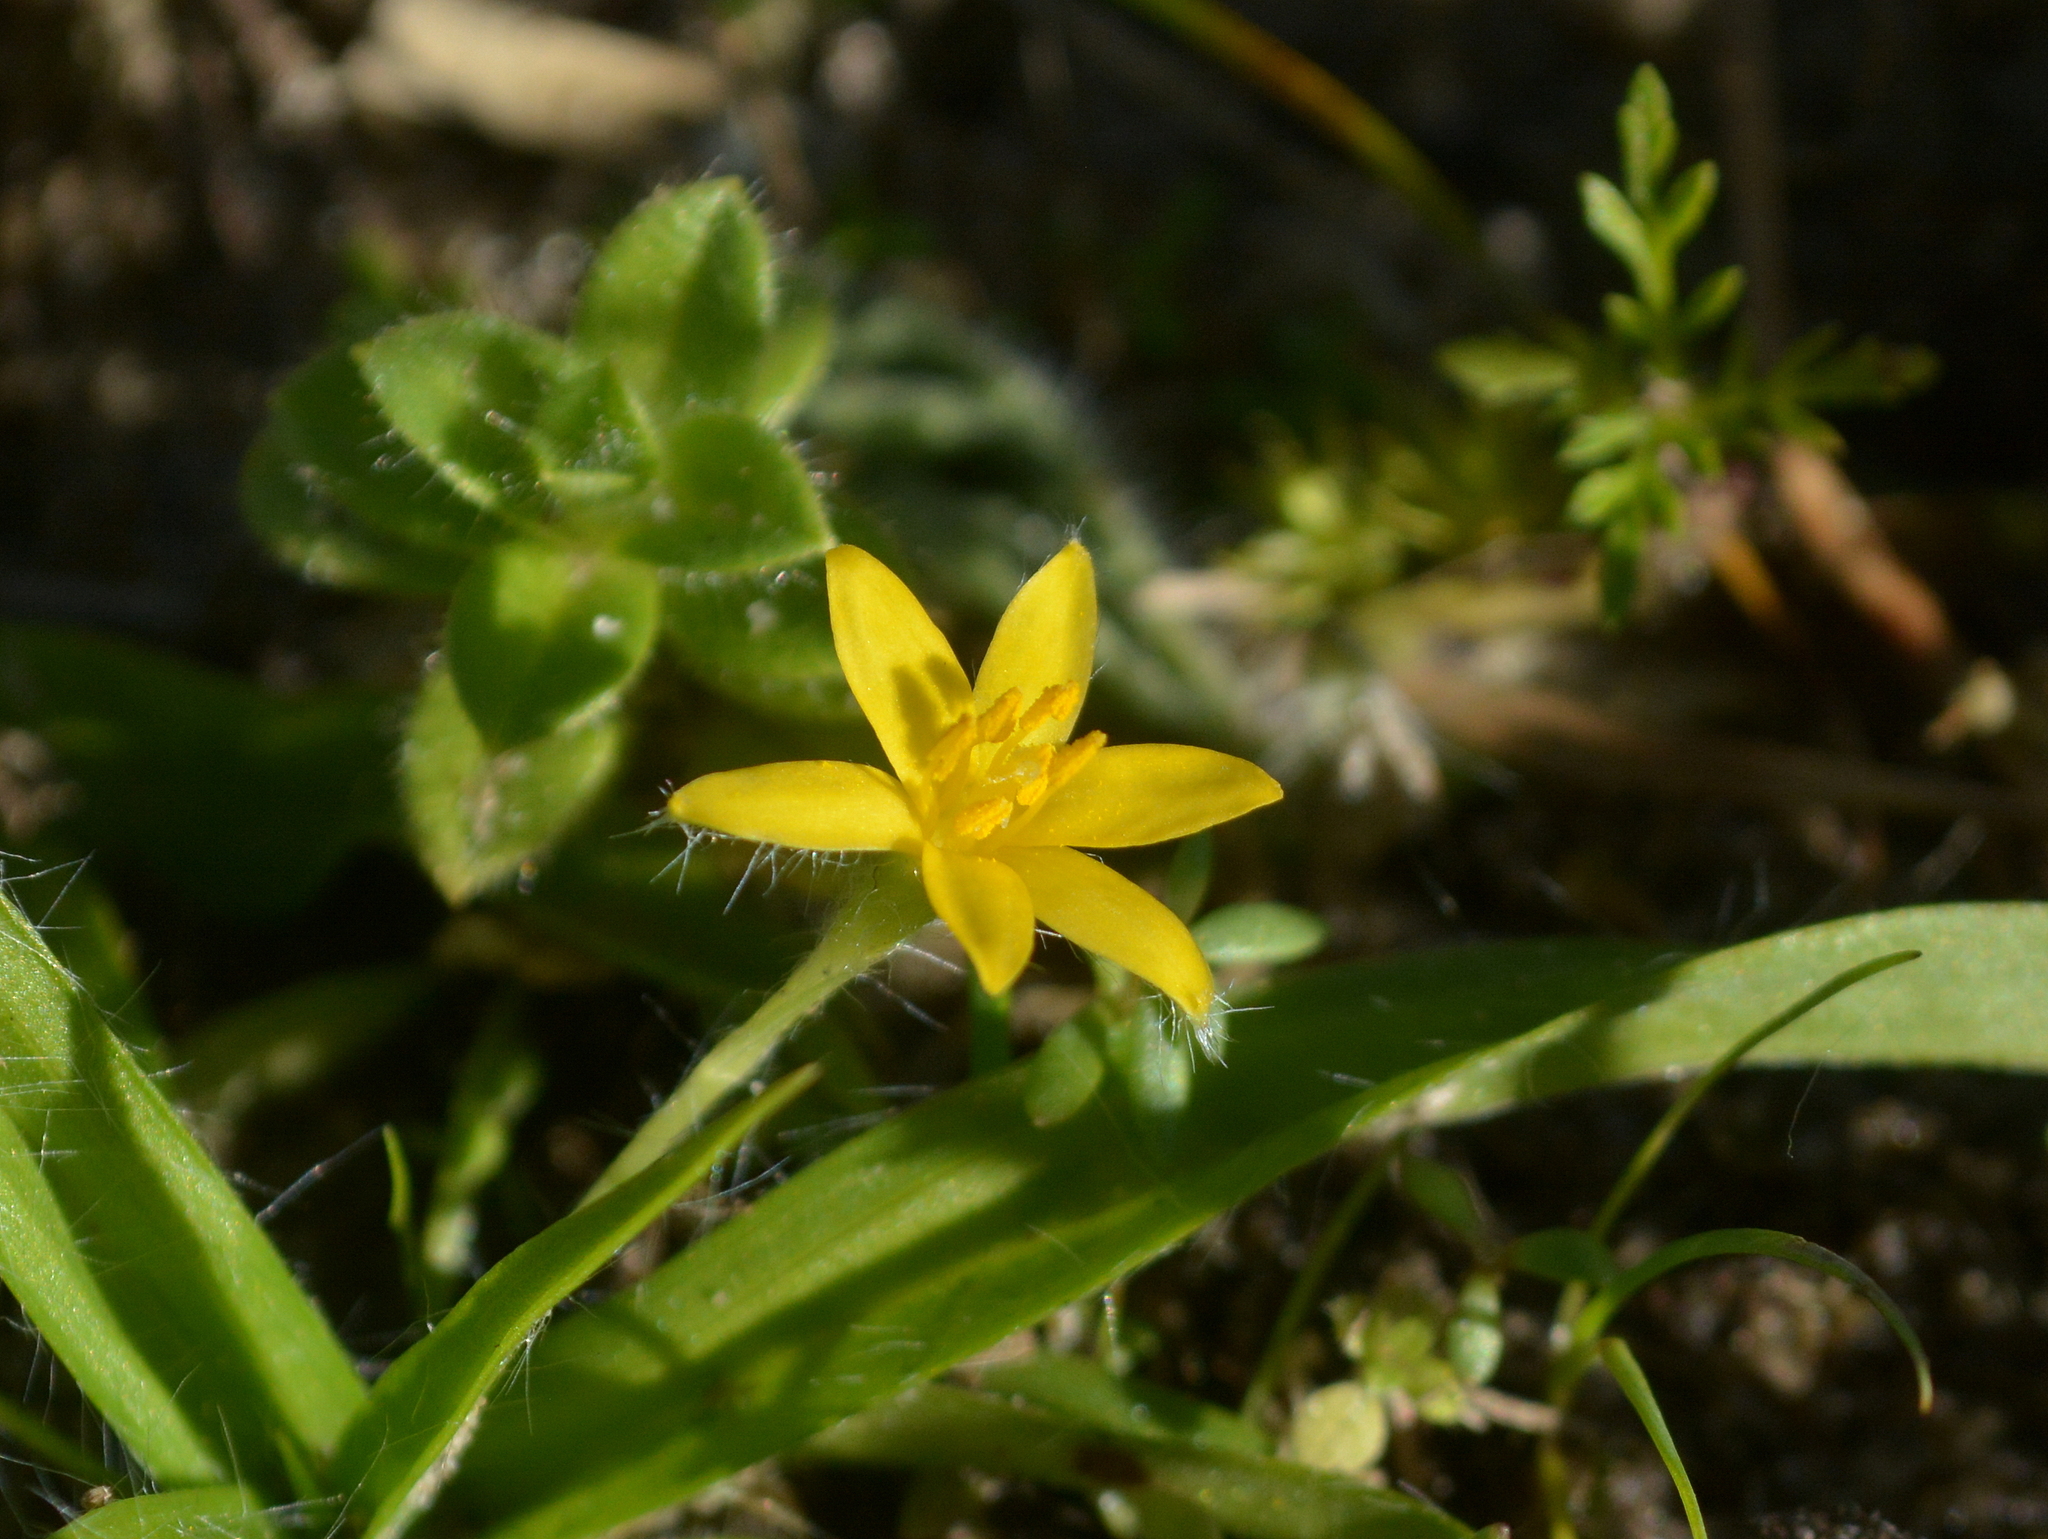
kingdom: Plantae
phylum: Tracheophyta
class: Liliopsida
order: Asparagales
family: Hypoxidaceae
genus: Hypoxis
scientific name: Hypoxis decumbens
